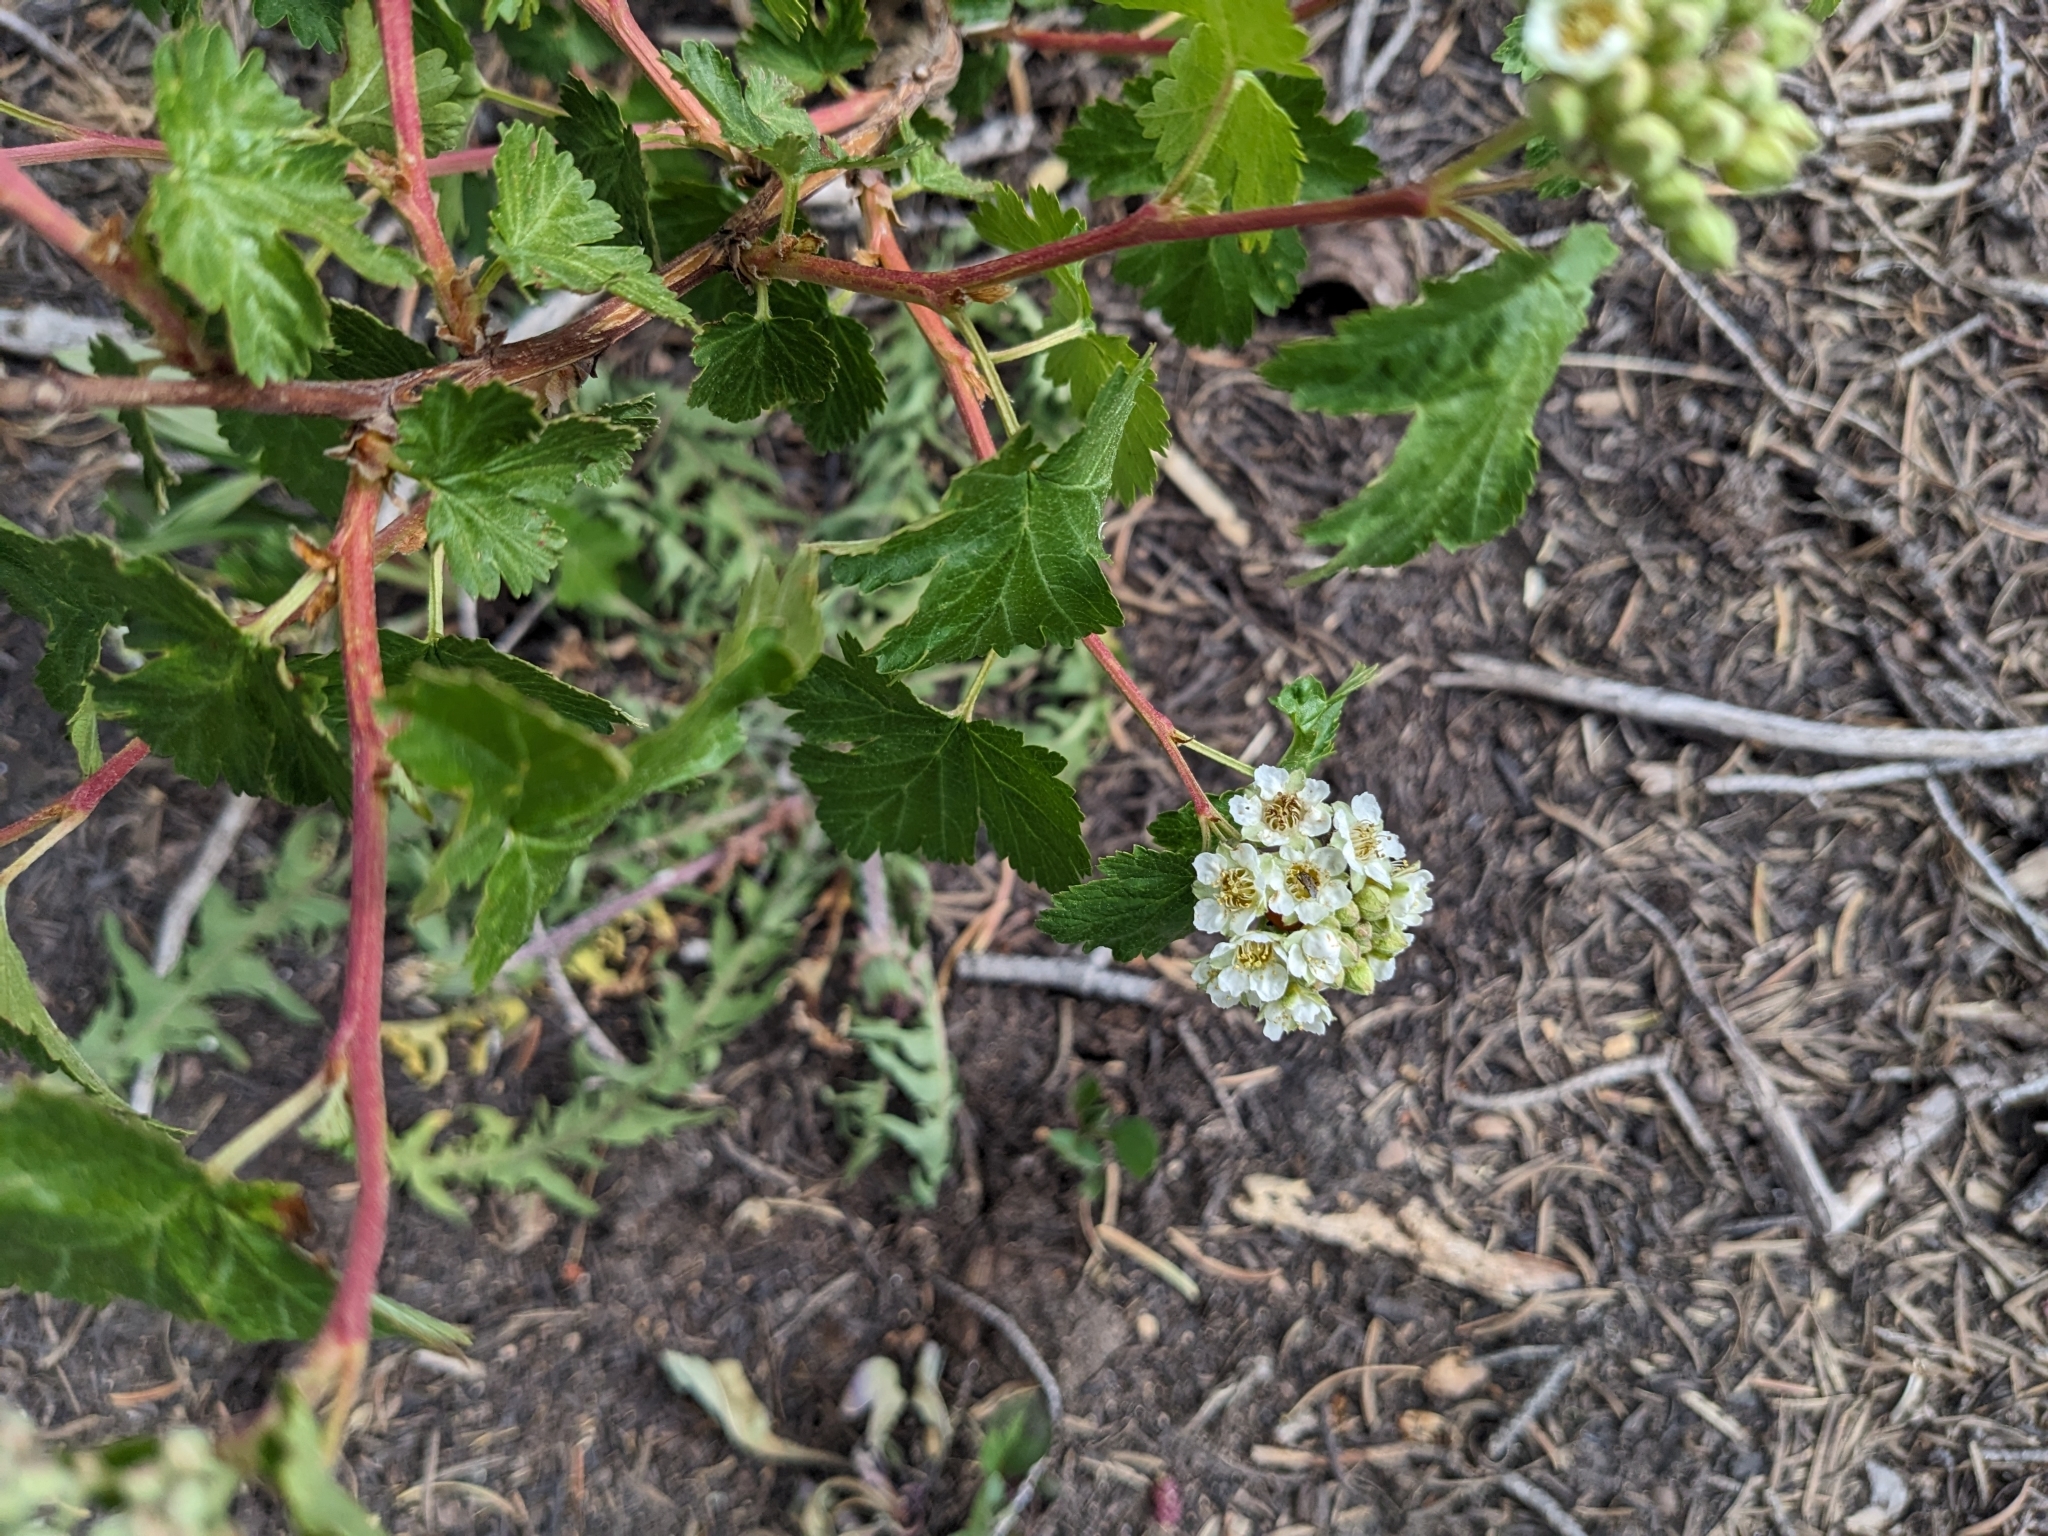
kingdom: Plantae
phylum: Tracheophyta
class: Magnoliopsida
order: Rosales
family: Rosaceae
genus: Physocarpus
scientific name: Physocarpus monogynus
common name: Mountain ninebark
